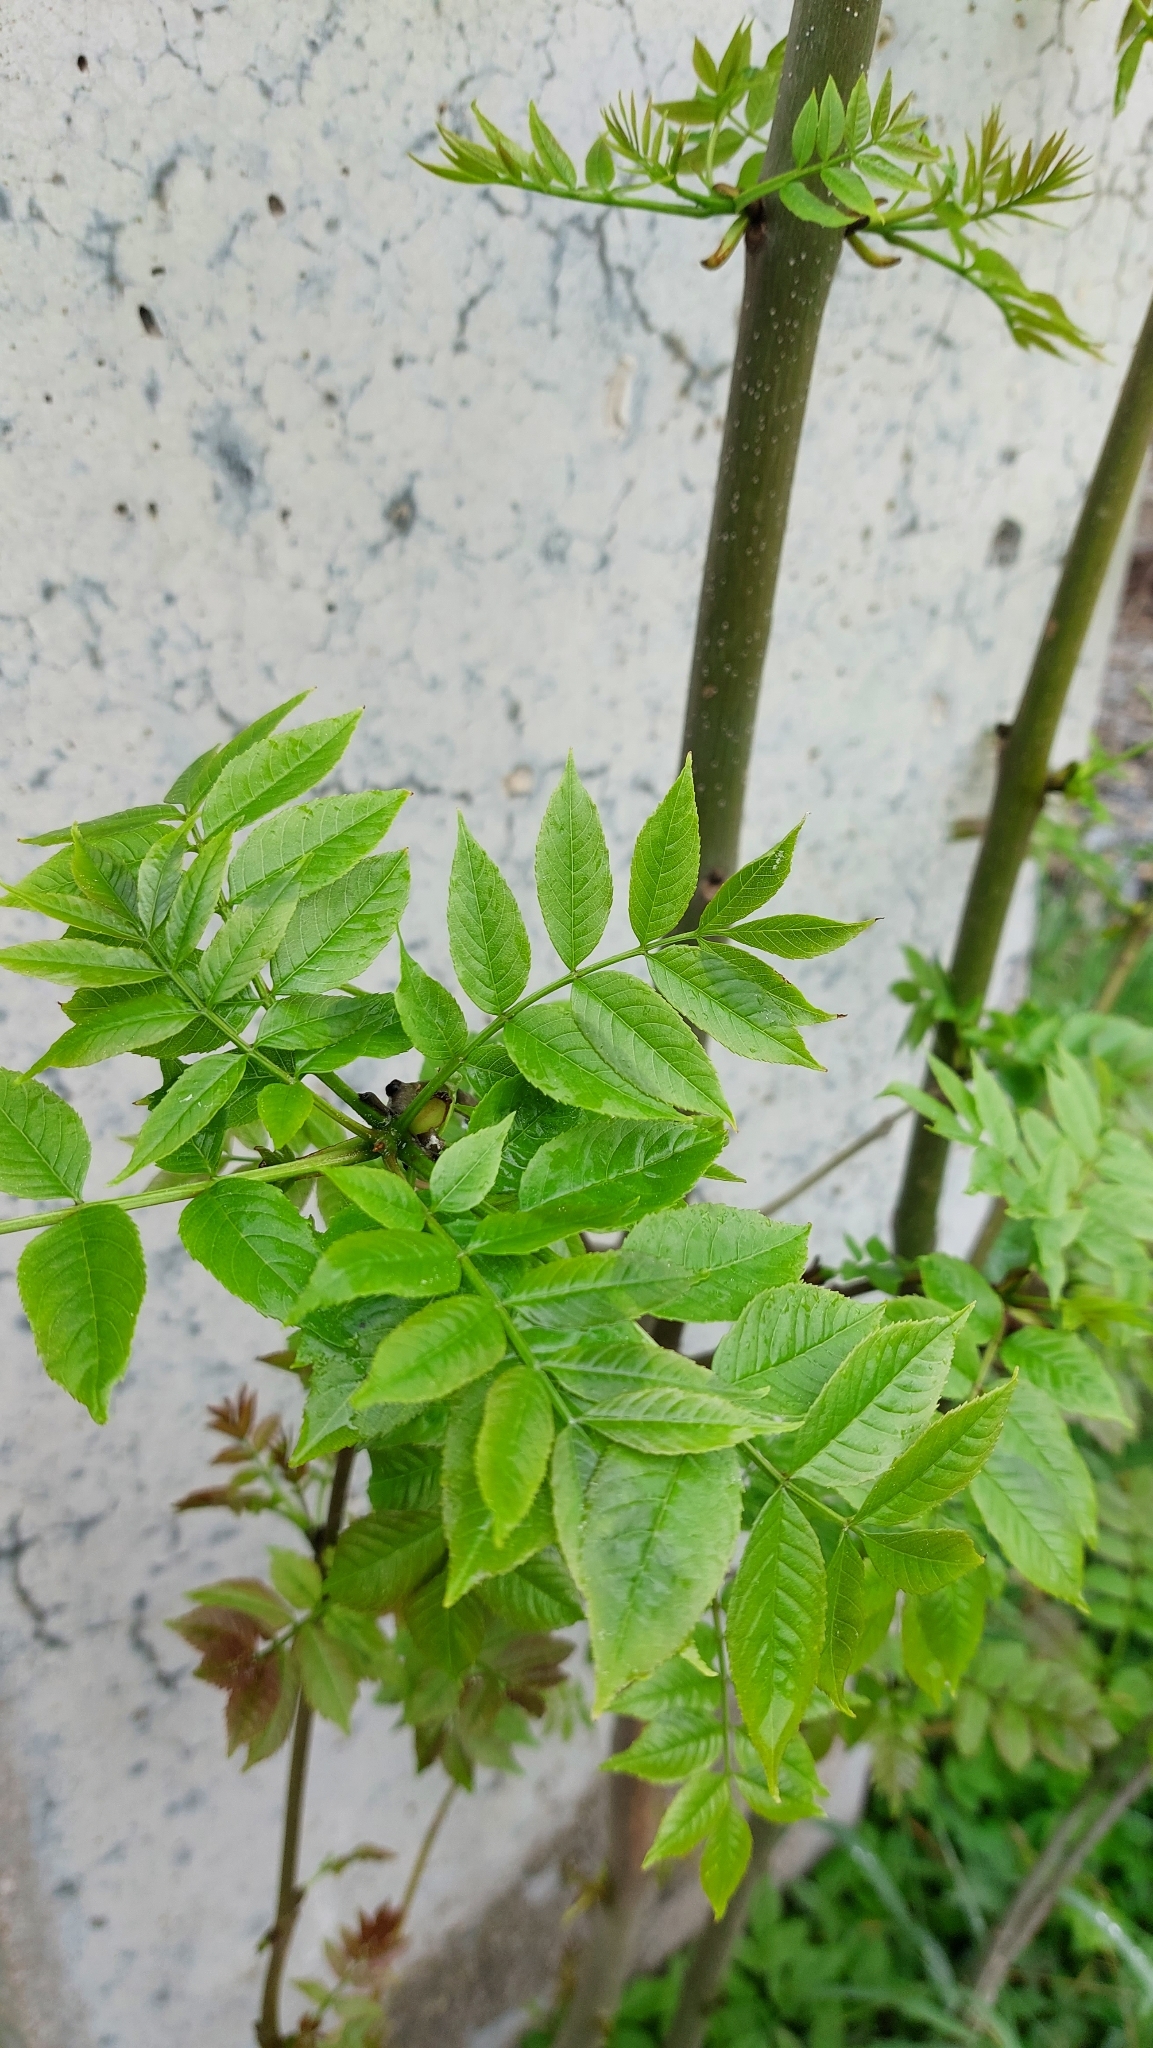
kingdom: Plantae
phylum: Tracheophyta
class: Magnoliopsida
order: Lamiales
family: Oleaceae
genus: Fraxinus
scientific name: Fraxinus excelsior
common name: European ash
